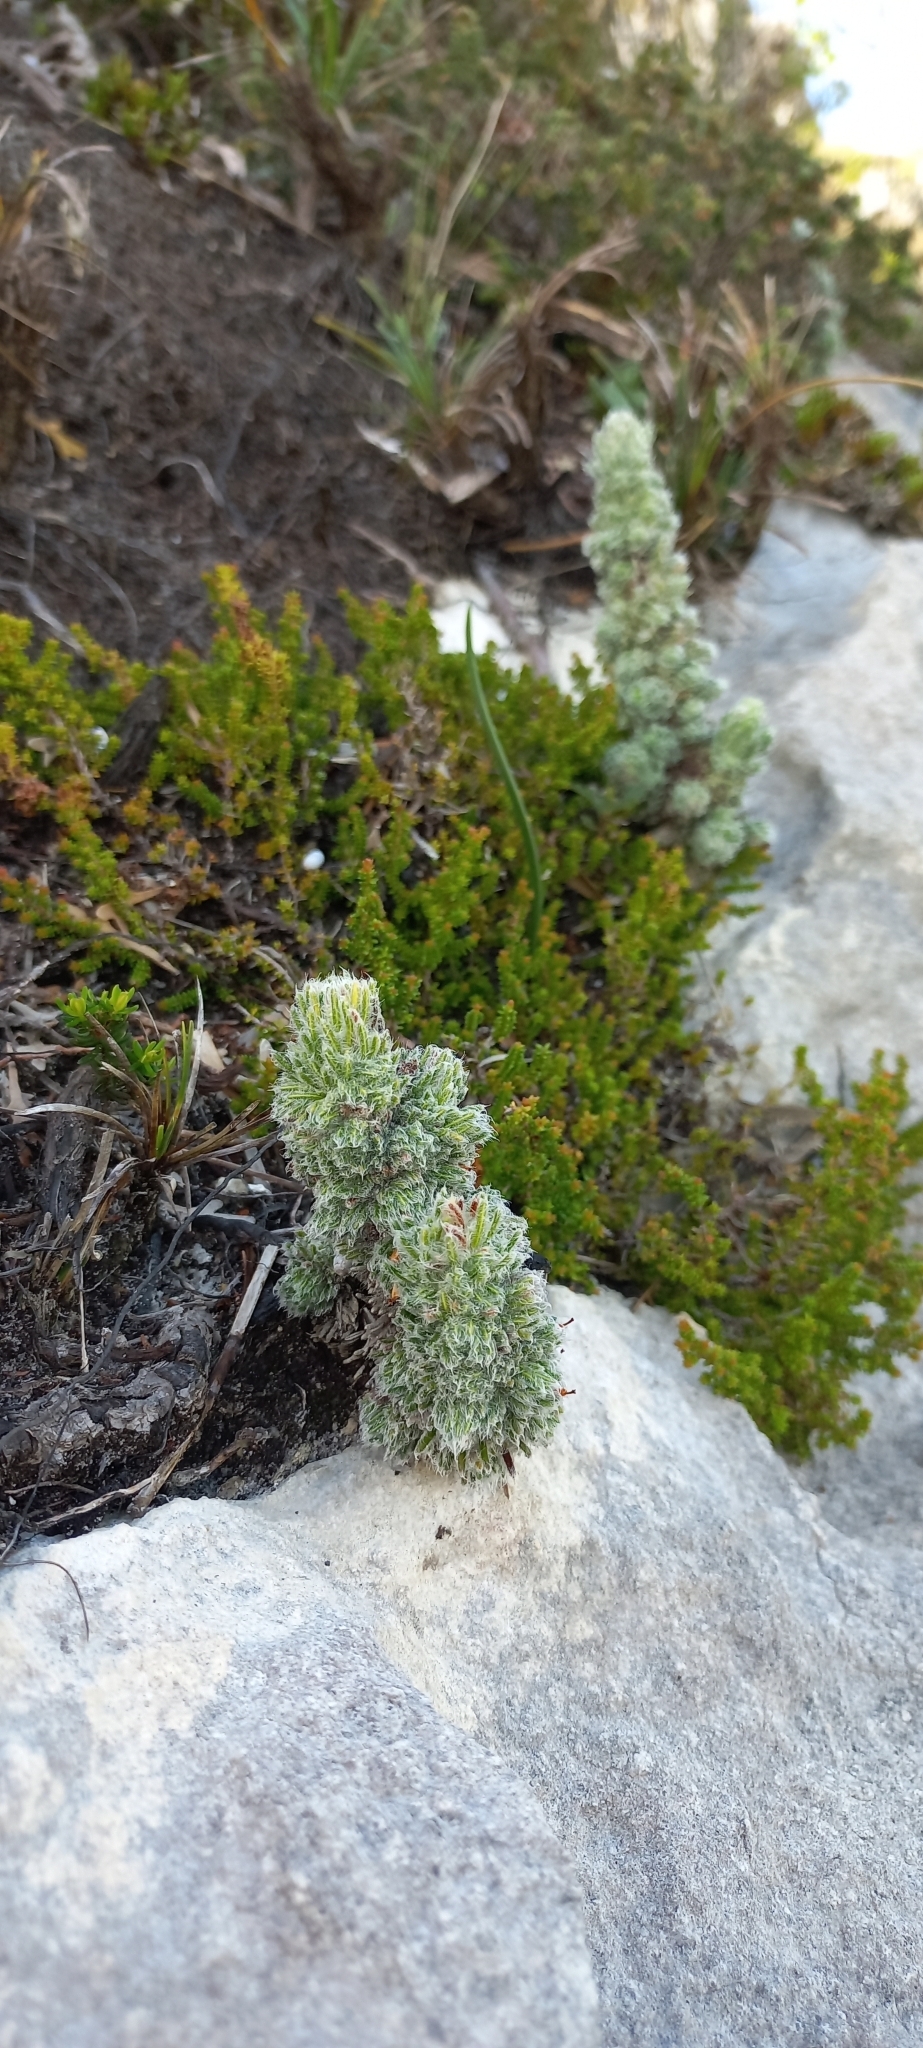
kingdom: Plantae
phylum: Tracheophyta
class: Magnoliopsida
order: Ericales
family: Ericaceae
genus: Erica
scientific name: Erica occulta
